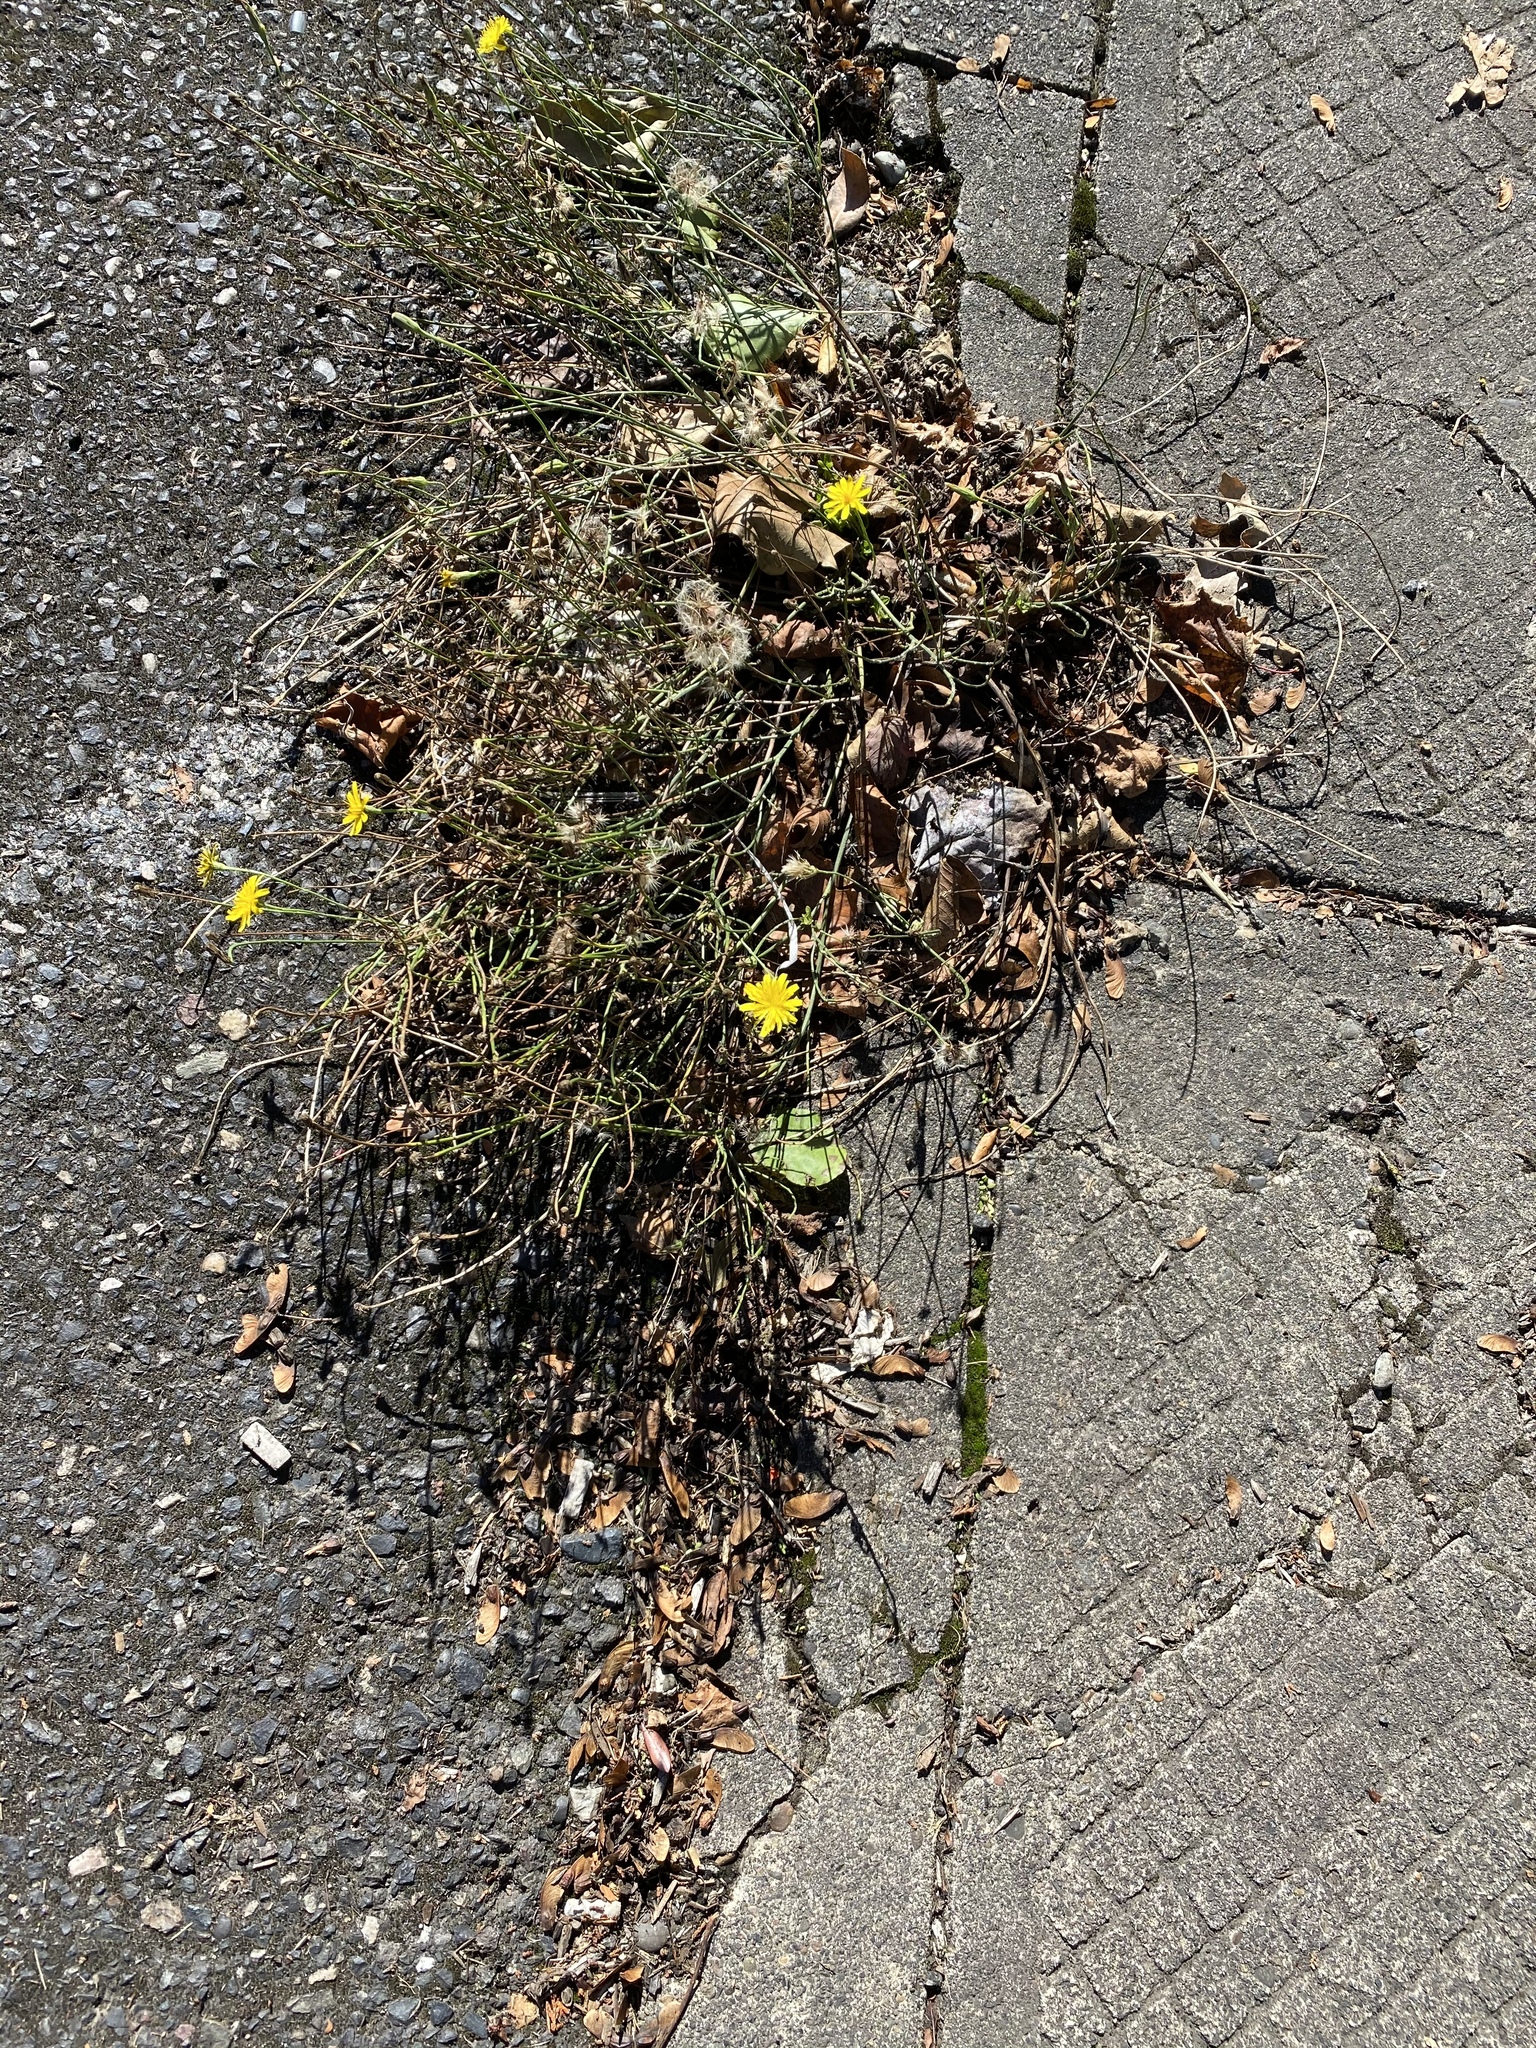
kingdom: Plantae
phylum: Tracheophyta
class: Magnoliopsida
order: Asterales
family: Asteraceae
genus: Hypochaeris
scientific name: Hypochaeris radicata
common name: Flatweed
